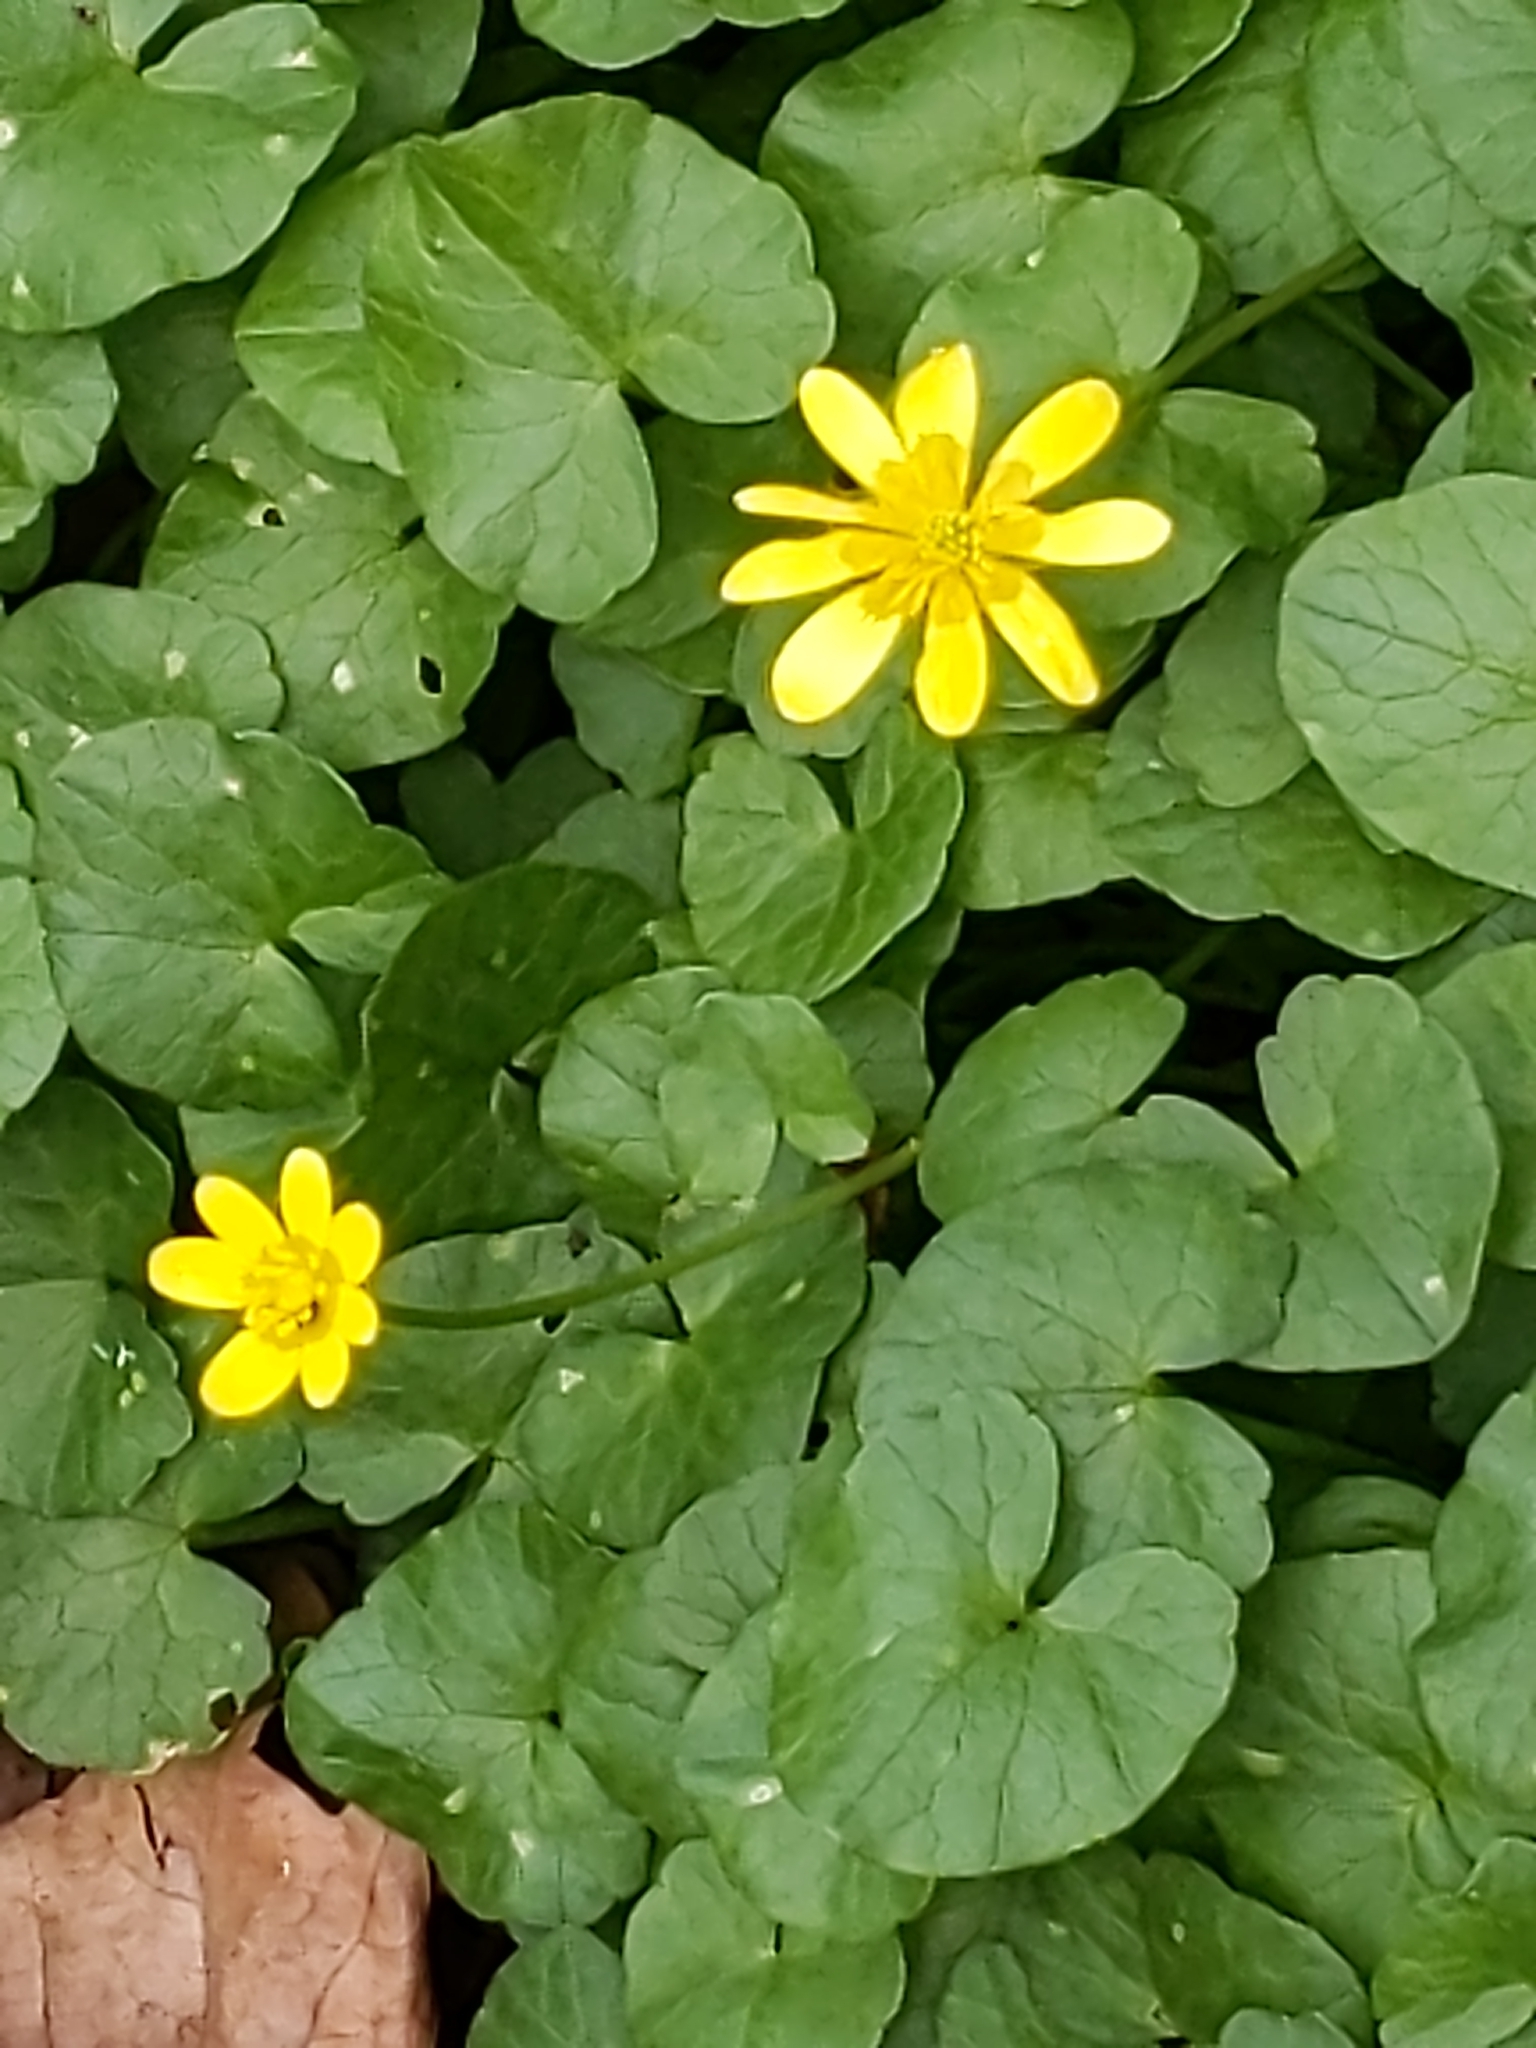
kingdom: Plantae
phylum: Tracheophyta
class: Magnoliopsida
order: Ranunculales
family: Ranunculaceae
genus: Ficaria
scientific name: Ficaria verna
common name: Lesser celandine
